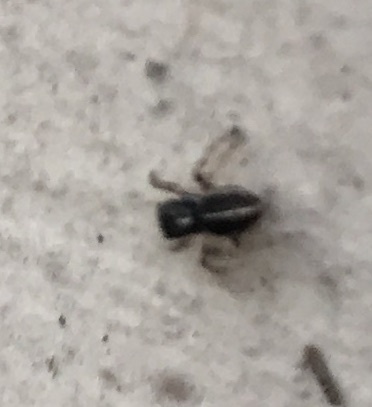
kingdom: Animalia
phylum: Arthropoda
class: Arachnida
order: Araneae
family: Salticidae
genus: Anasaitis
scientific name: Anasaitis canosa
